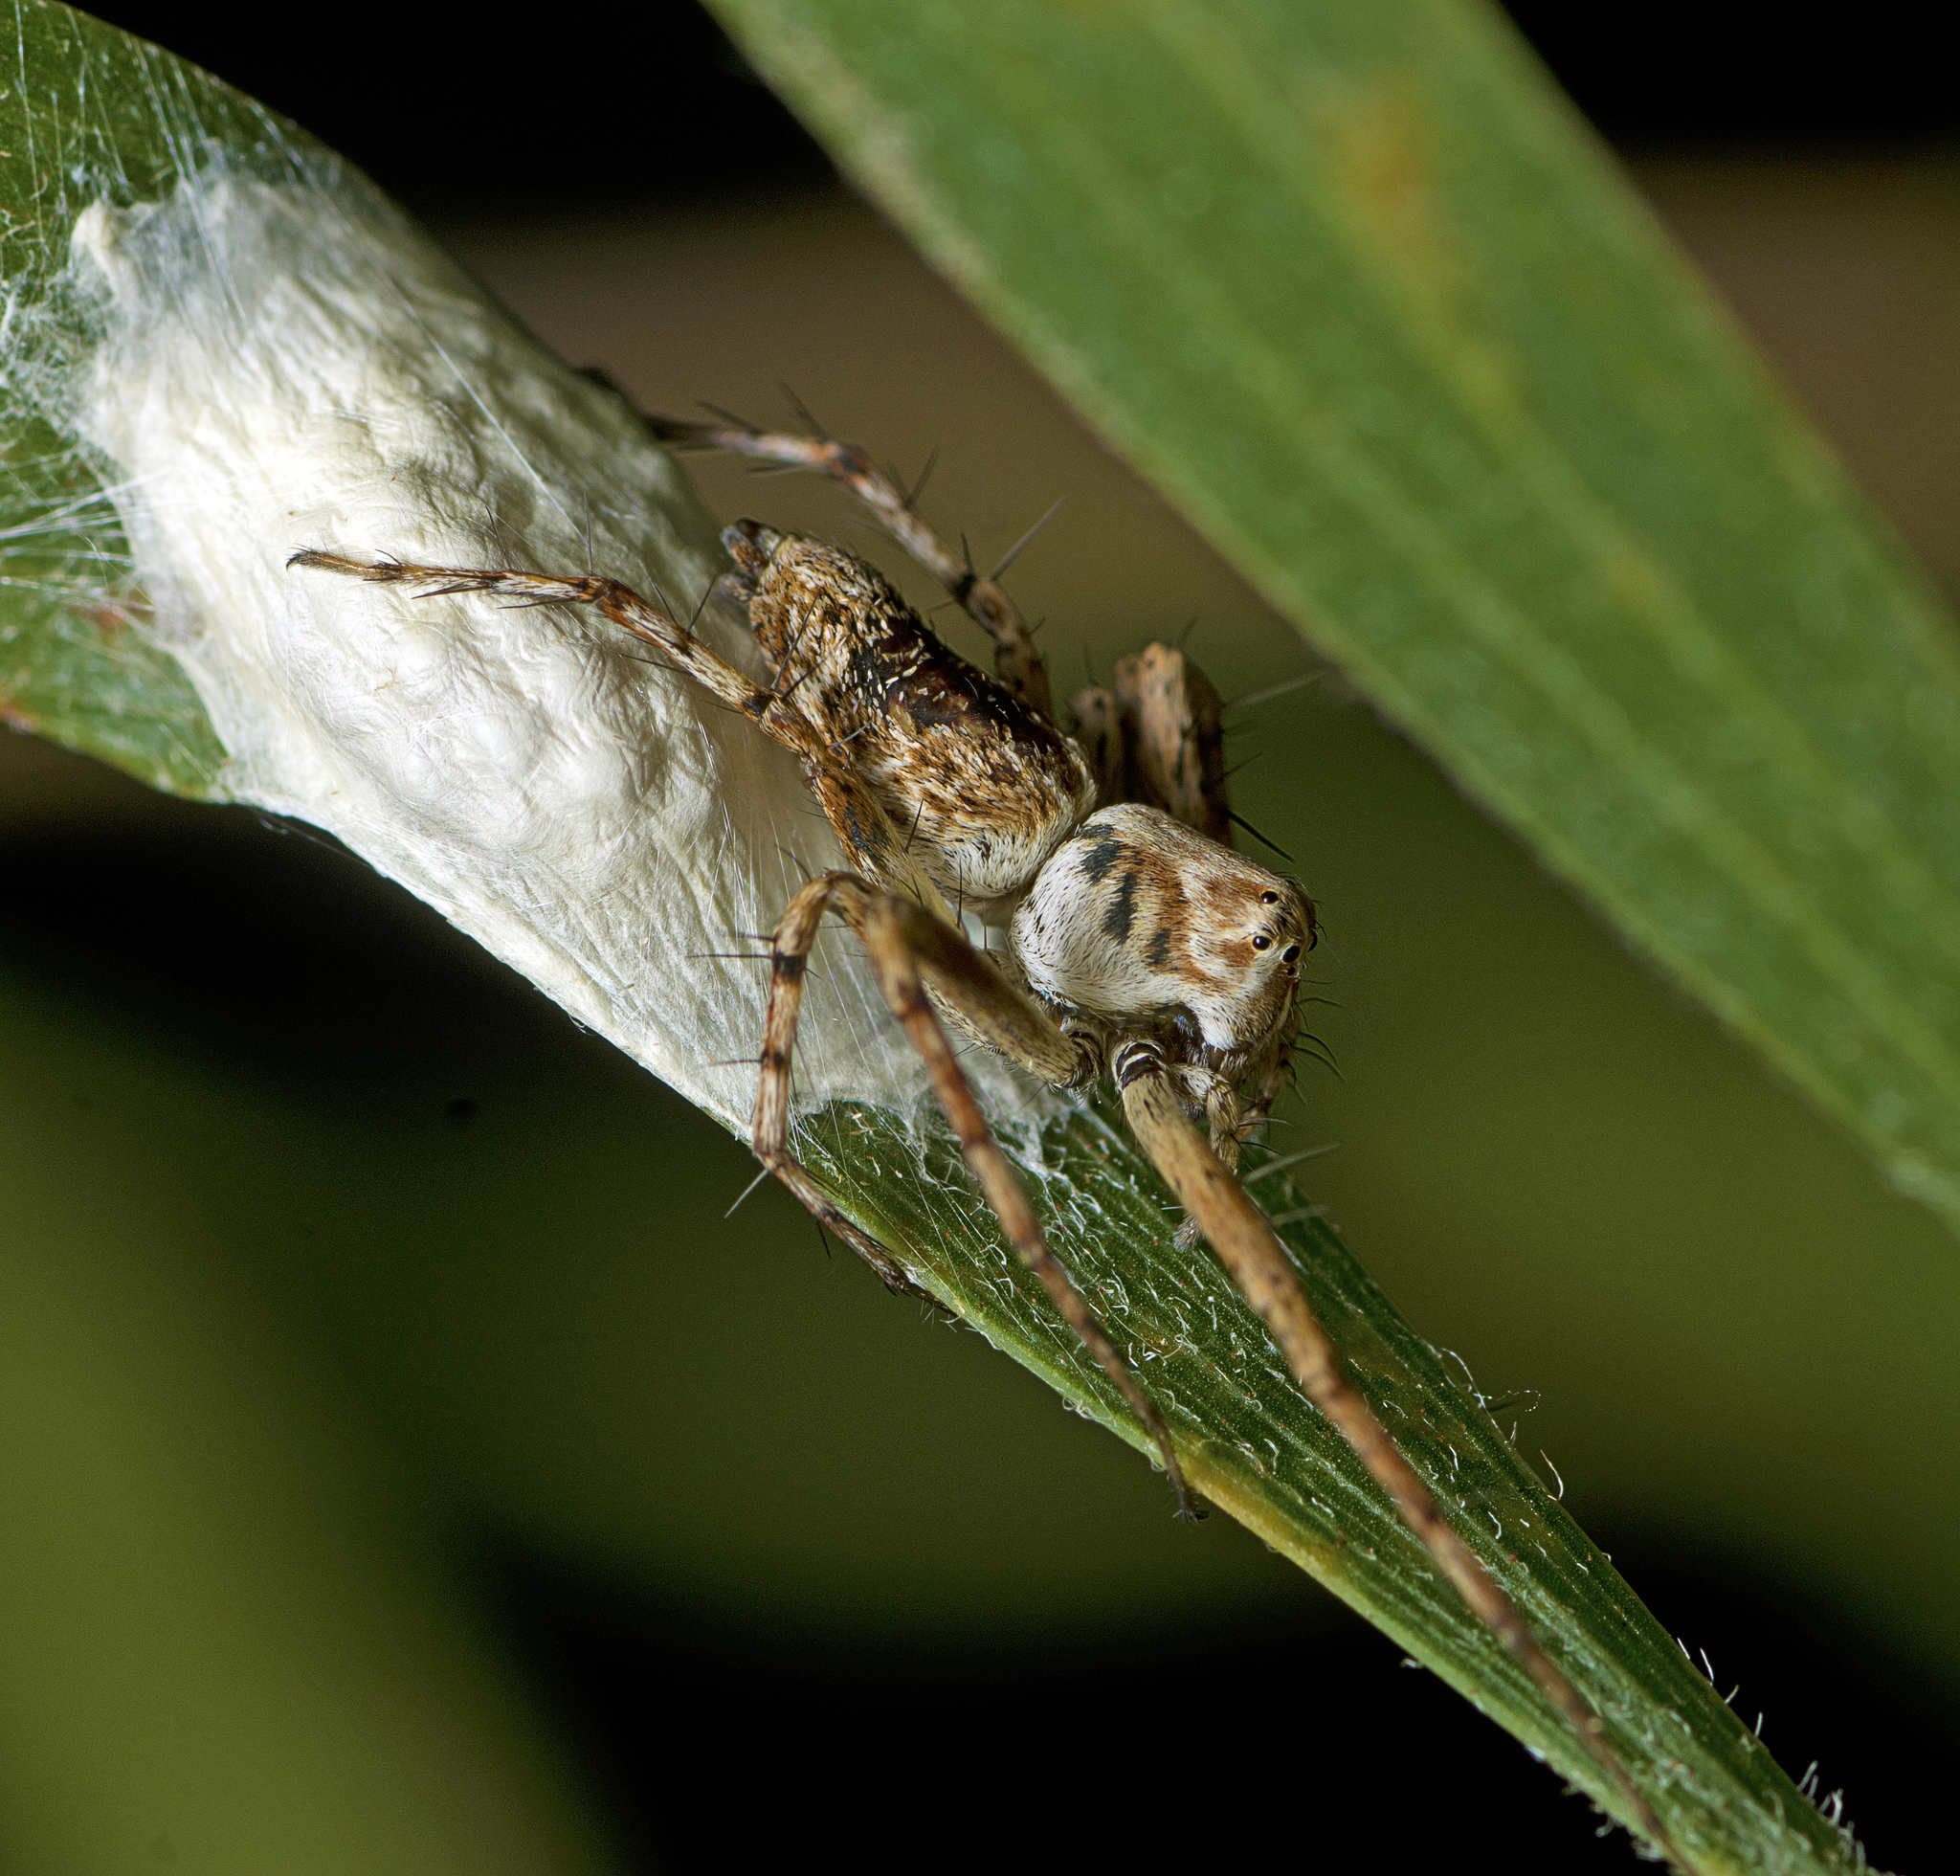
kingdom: Animalia
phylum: Arthropoda
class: Arachnida
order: Araneae
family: Oxyopidae
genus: Oxyopes
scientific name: Oxyopes variabilis
